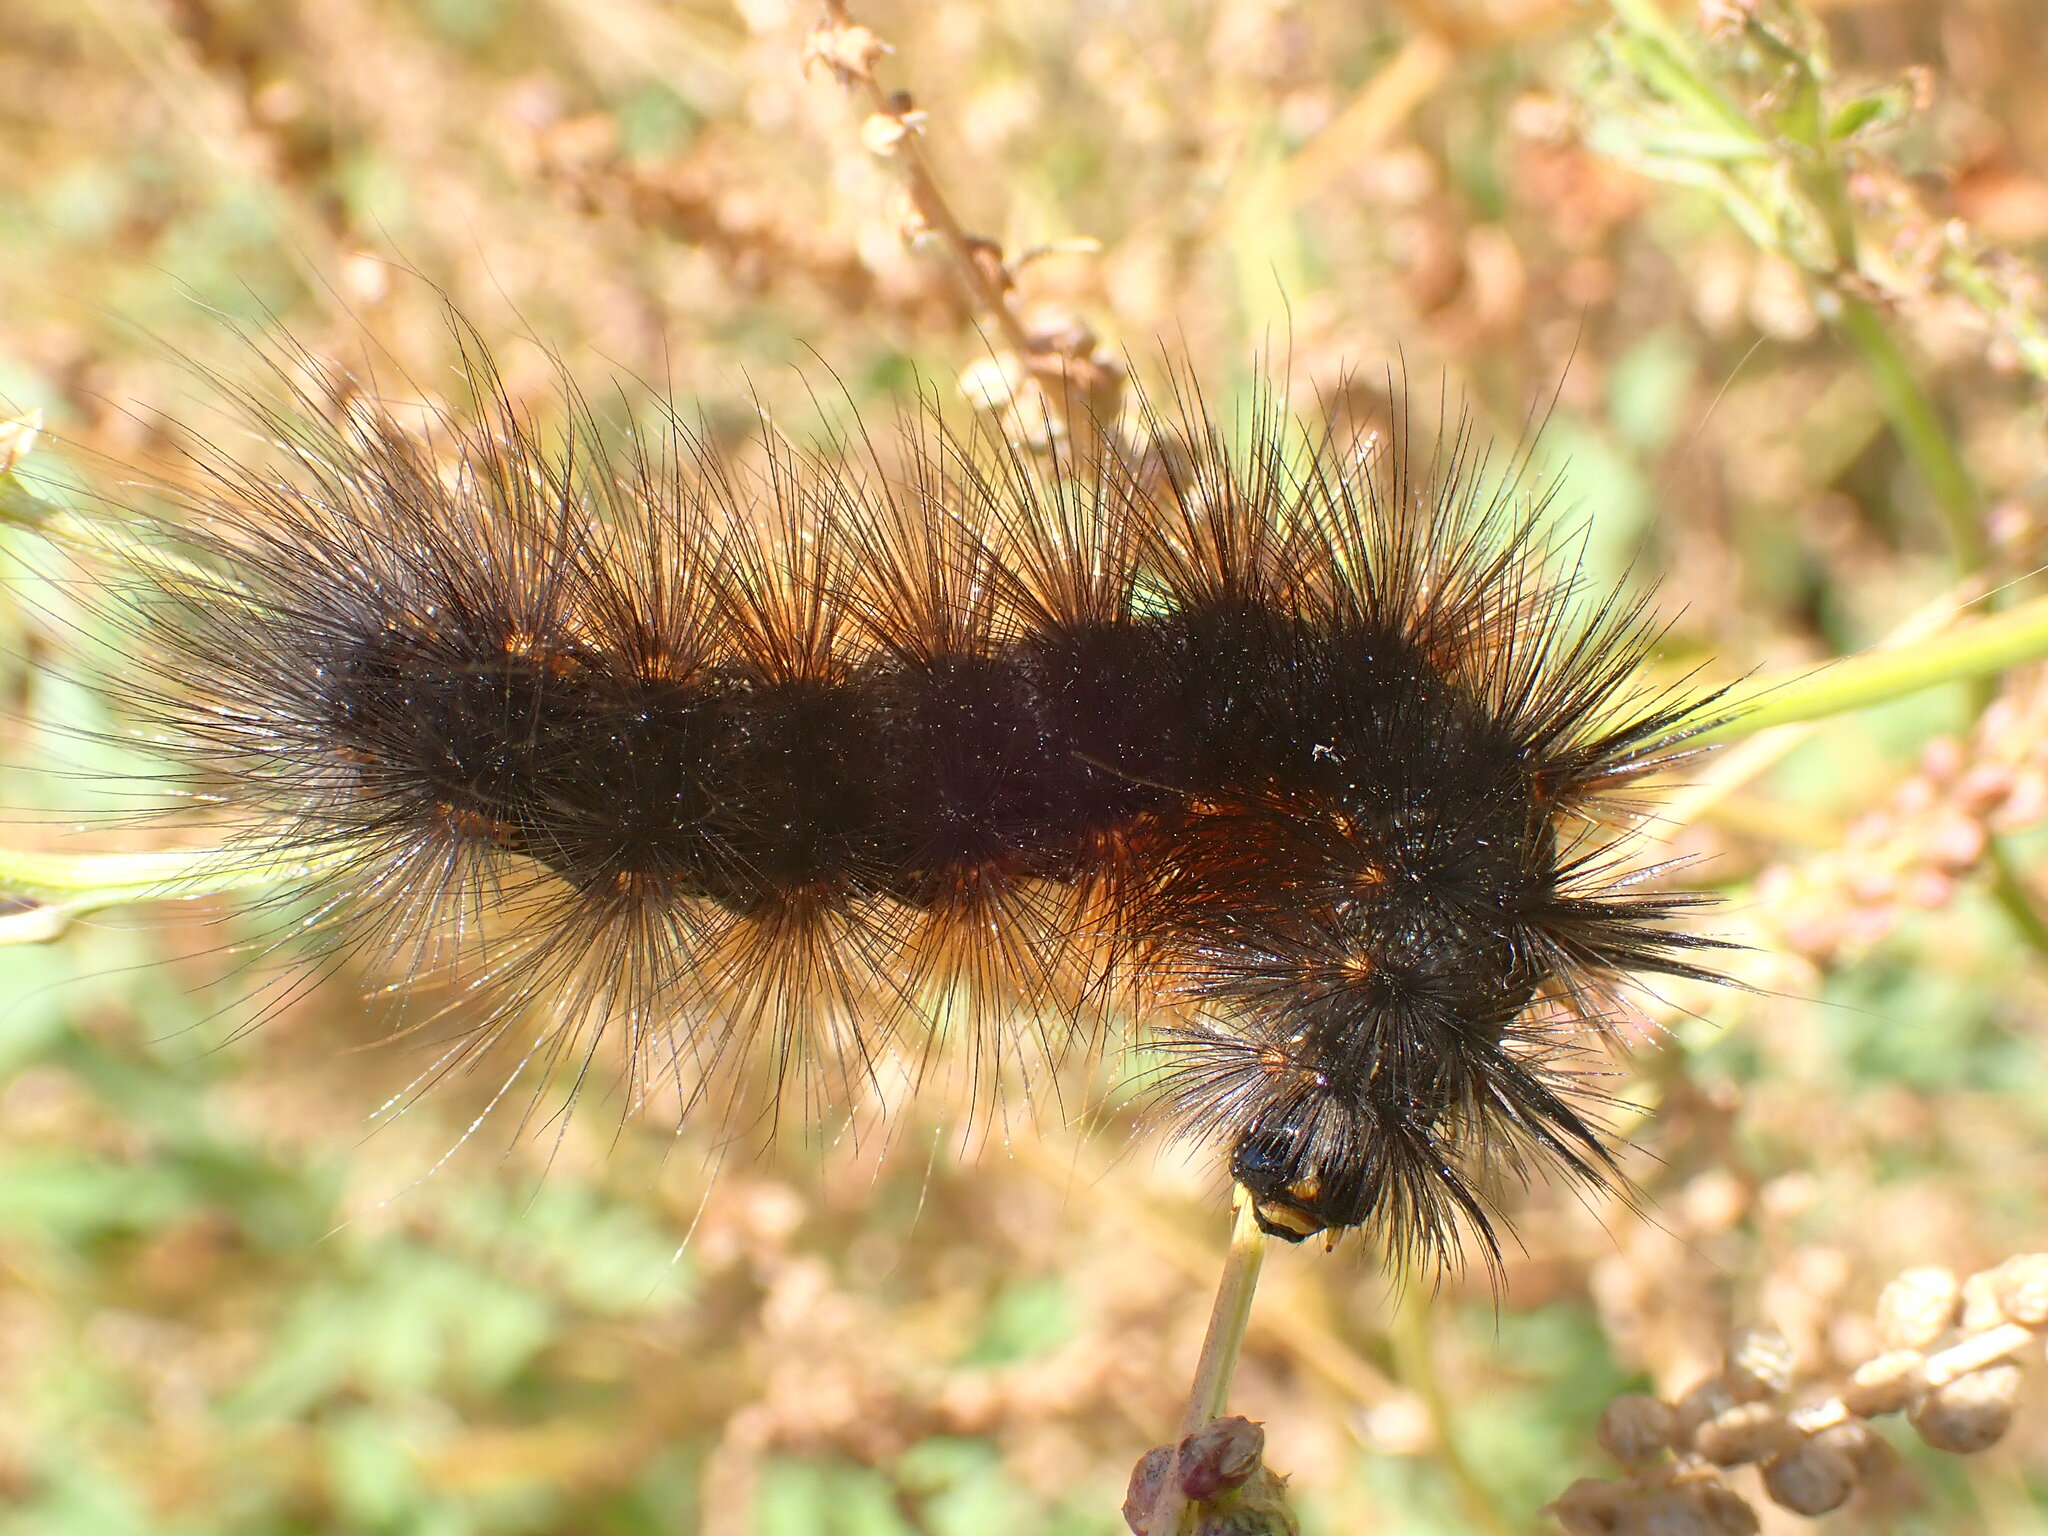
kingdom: Animalia
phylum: Arthropoda
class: Insecta
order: Lepidoptera
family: Erebidae
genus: Estigmene
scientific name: Estigmene acrea
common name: Salt marsh moth
